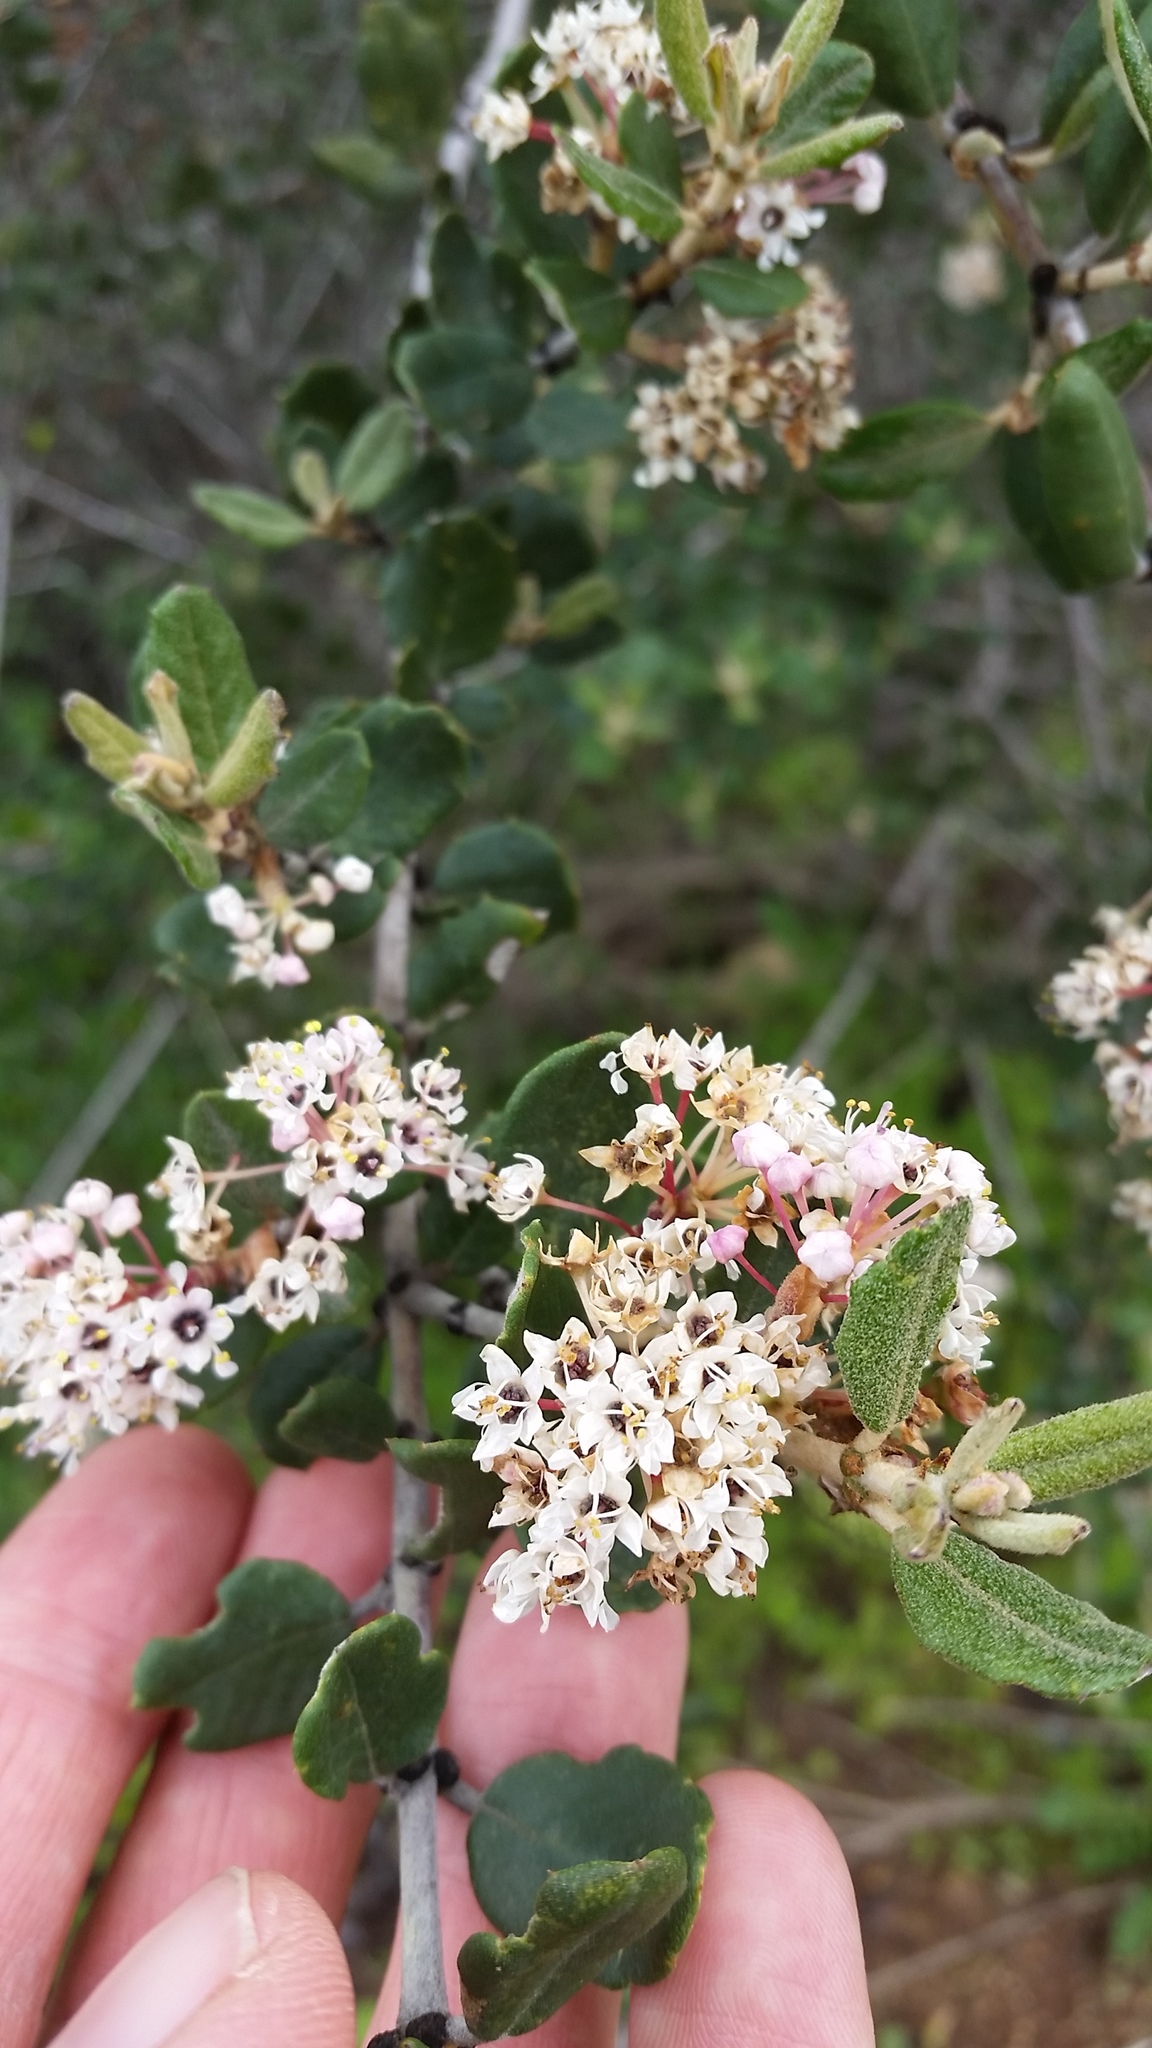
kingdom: Plantae
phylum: Tracheophyta
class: Magnoliopsida
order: Rosales
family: Rhamnaceae
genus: Ceanothus
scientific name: Ceanothus crassifolius
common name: Hoaryleaf ceanothus
